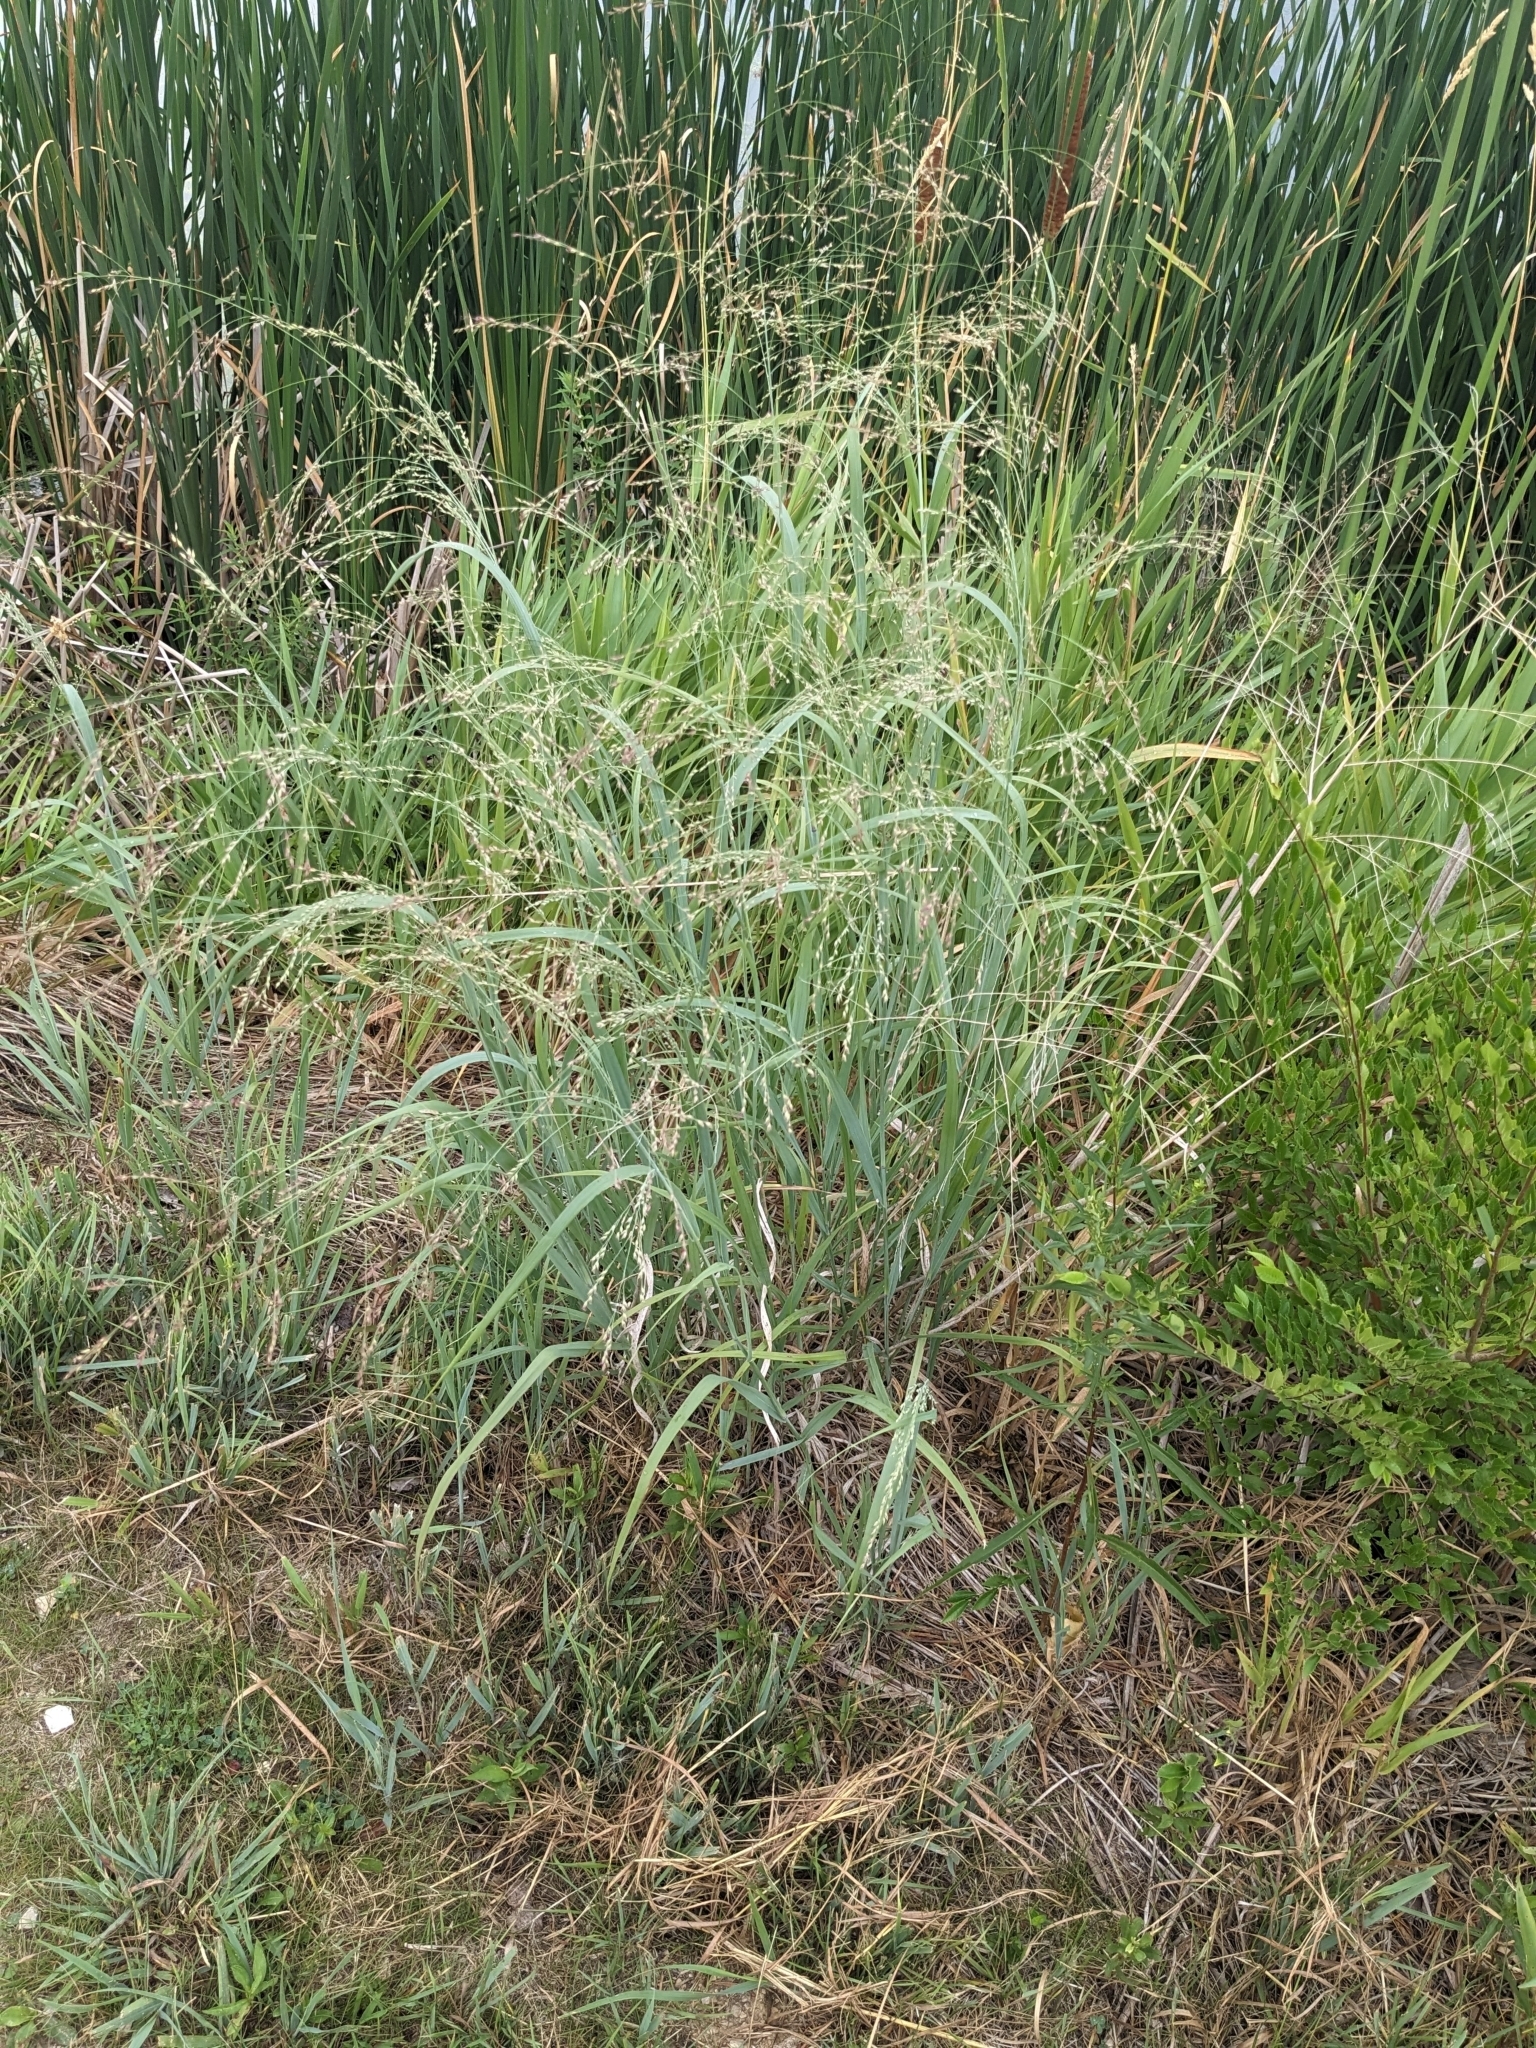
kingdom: Plantae
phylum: Tracheophyta
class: Liliopsida
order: Poales
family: Poaceae
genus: Panicum
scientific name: Panicum virgatum
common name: Switchgrass
